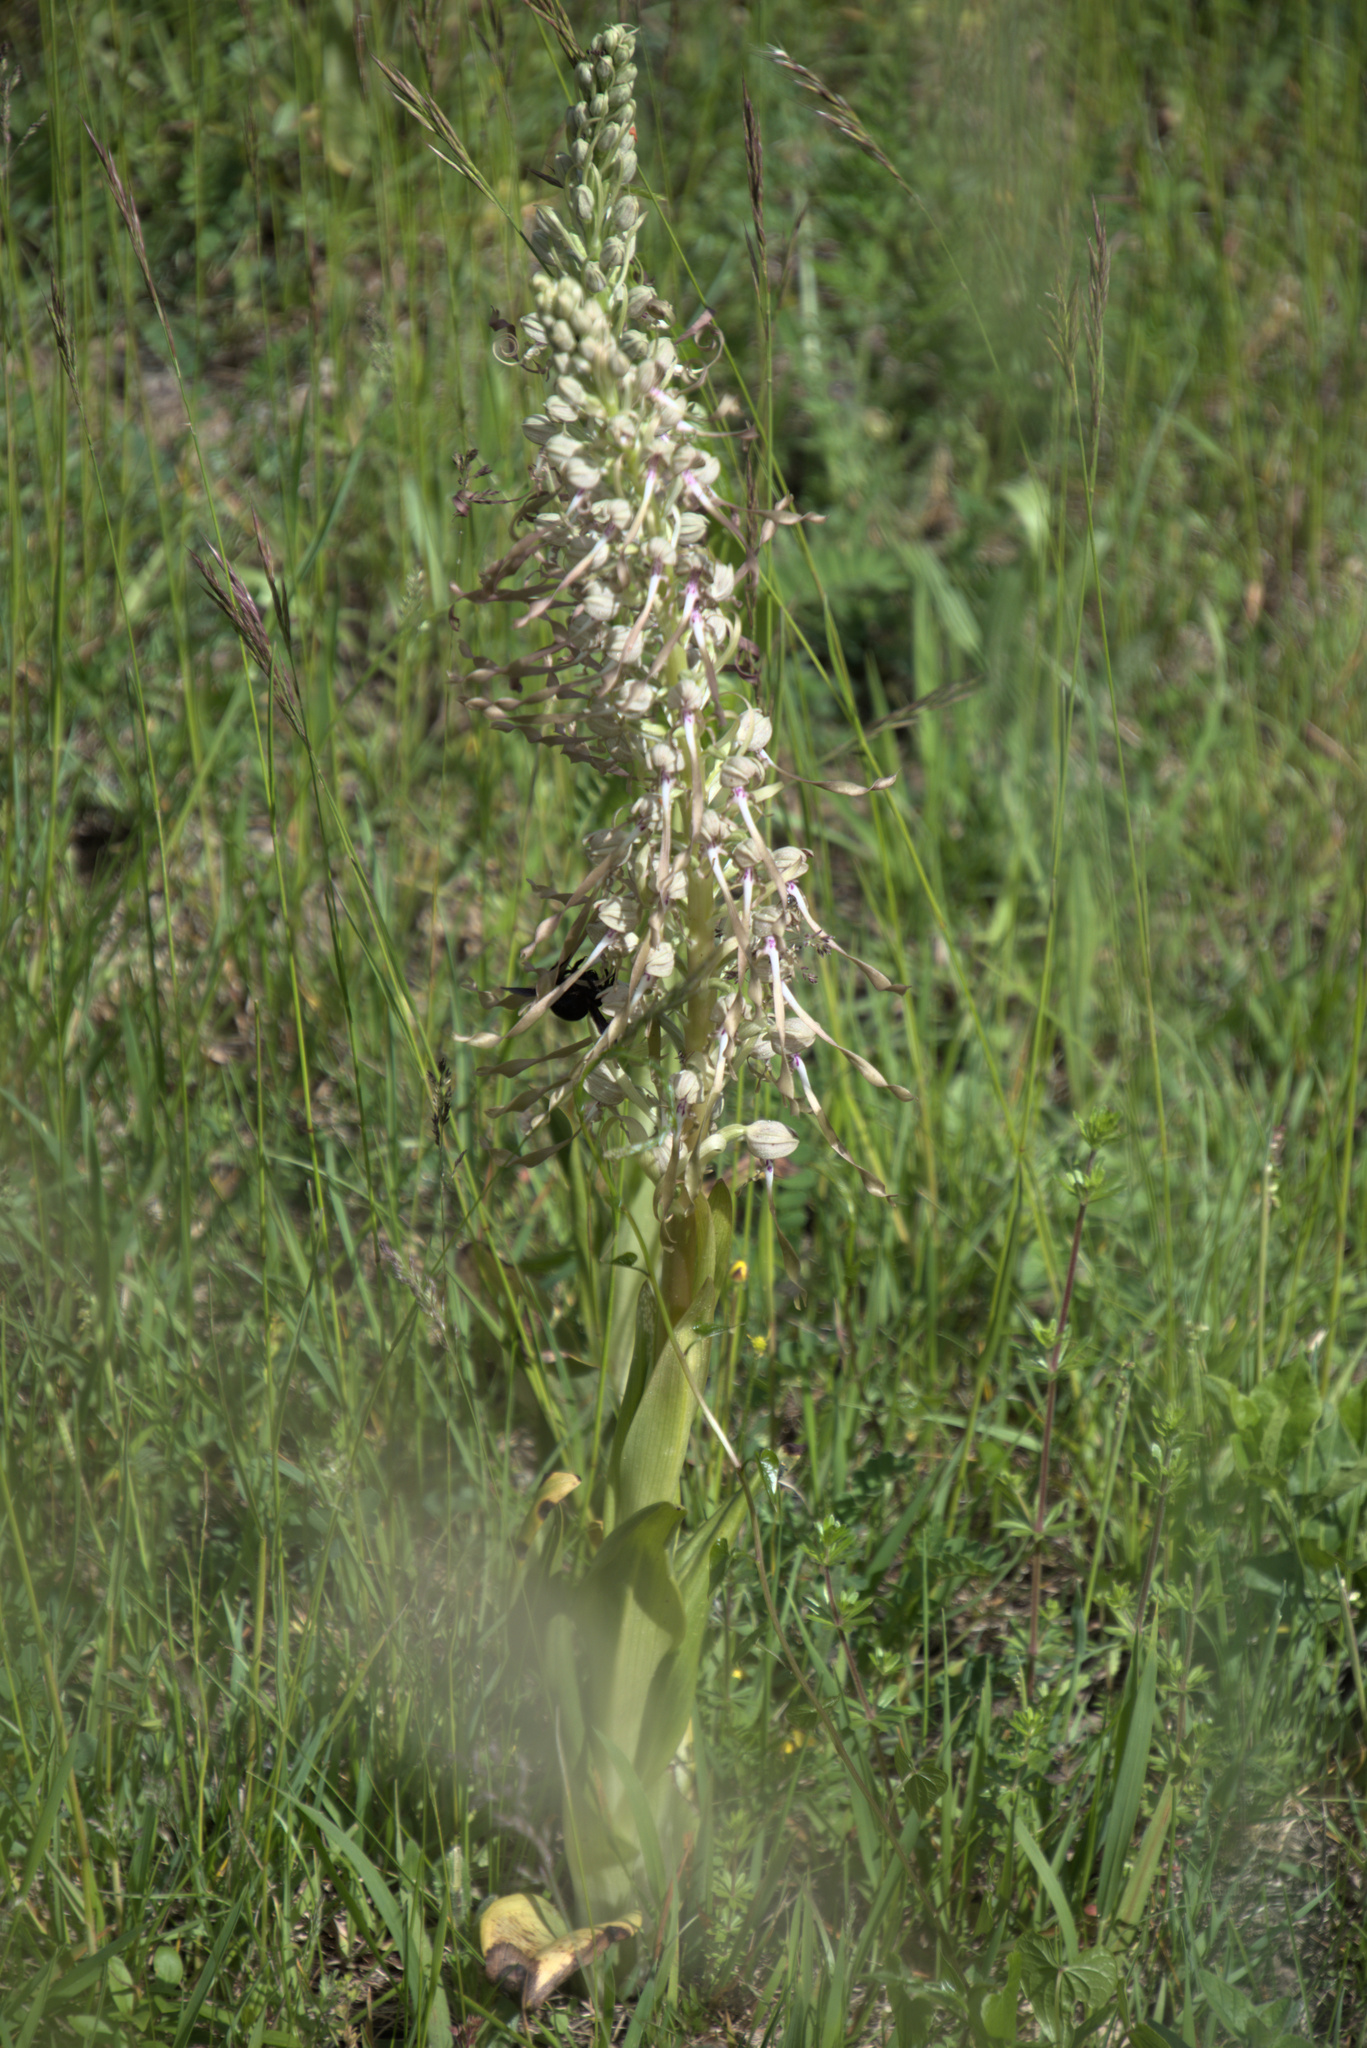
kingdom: Plantae
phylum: Tracheophyta
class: Liliopsida
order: Asparagales
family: Orchidaceae
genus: Himantoglossum
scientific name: Himantoglossum hircinum
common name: Lizard orchid
